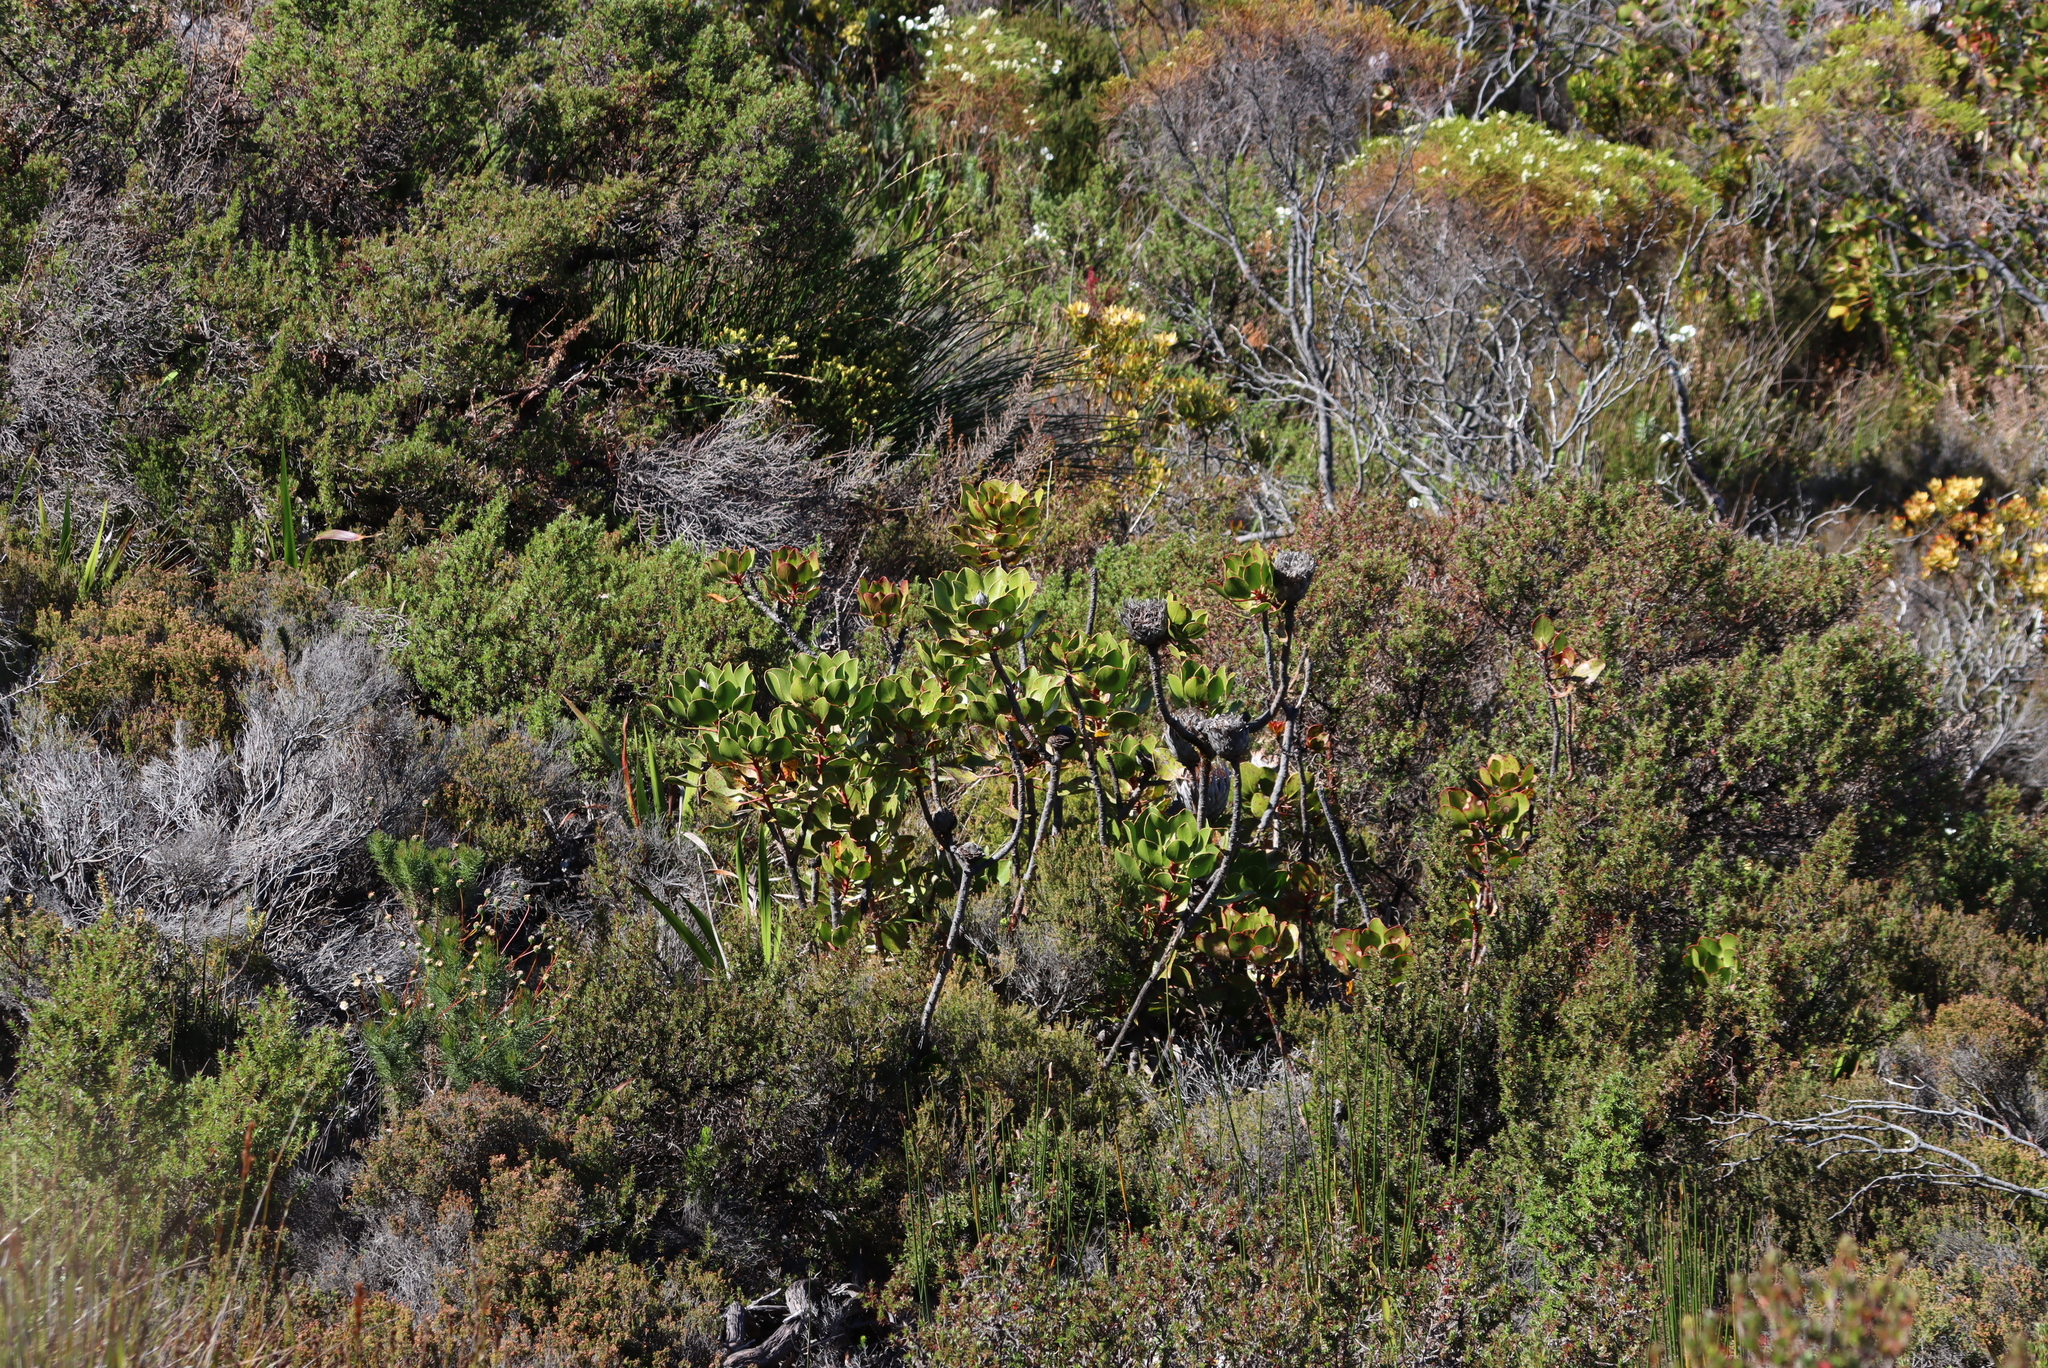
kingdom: Plantae
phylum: Tracheophyta
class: Magnoliopsida
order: Proteales
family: Proteaceae
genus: Protea
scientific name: Protea cynaroides
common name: King protea
